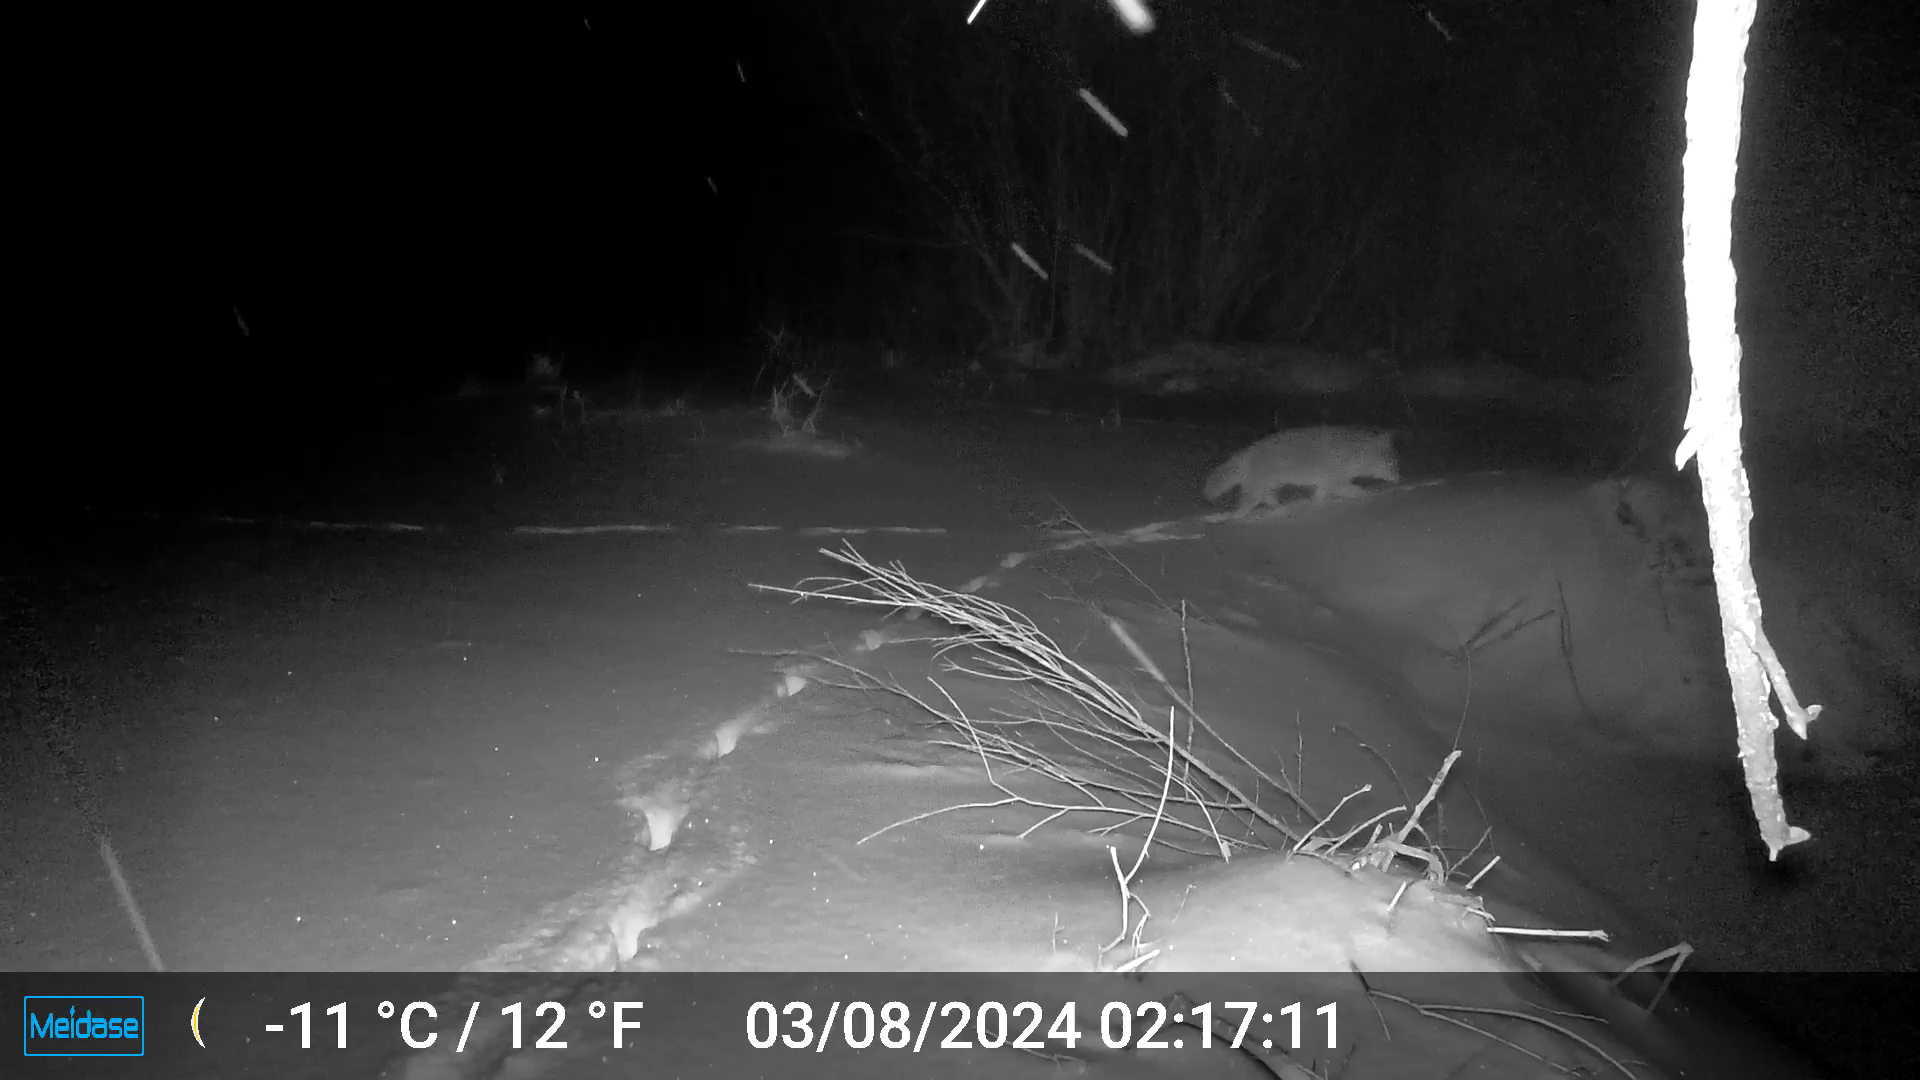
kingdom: Animalia
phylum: Chordata
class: Mammalia
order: Carnivora
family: Canidae
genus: Canis
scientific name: Canis latrans
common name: Coyote
